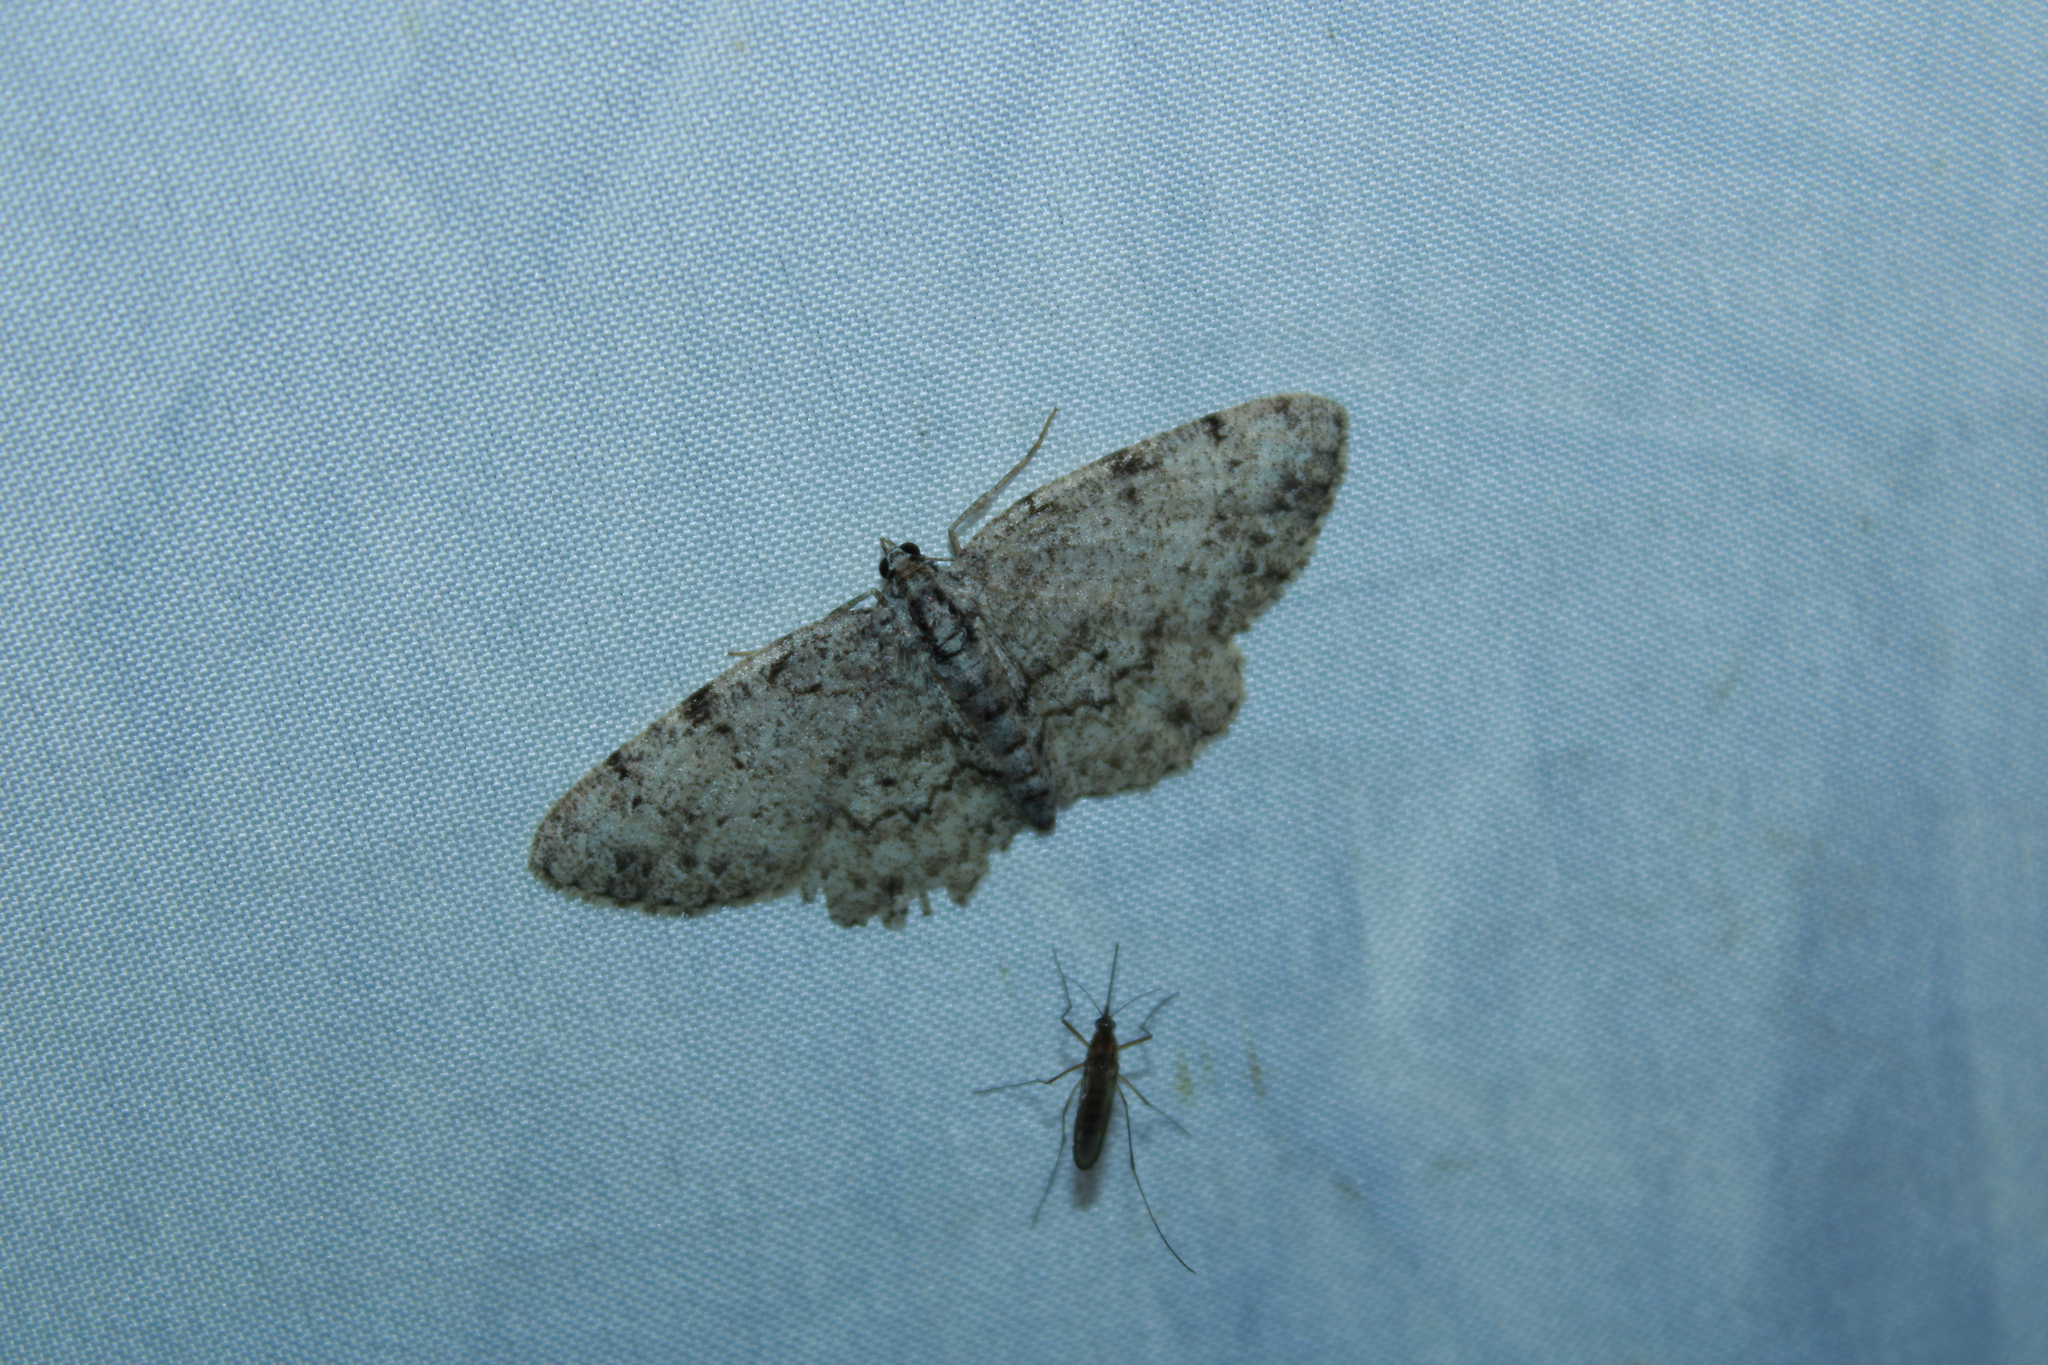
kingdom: Animalia
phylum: Arthropoda
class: Insecta
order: Lepidoptera
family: Geometridae
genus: Protoboarmia
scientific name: Protoboarmia porcelaria
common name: Porcelain gray
